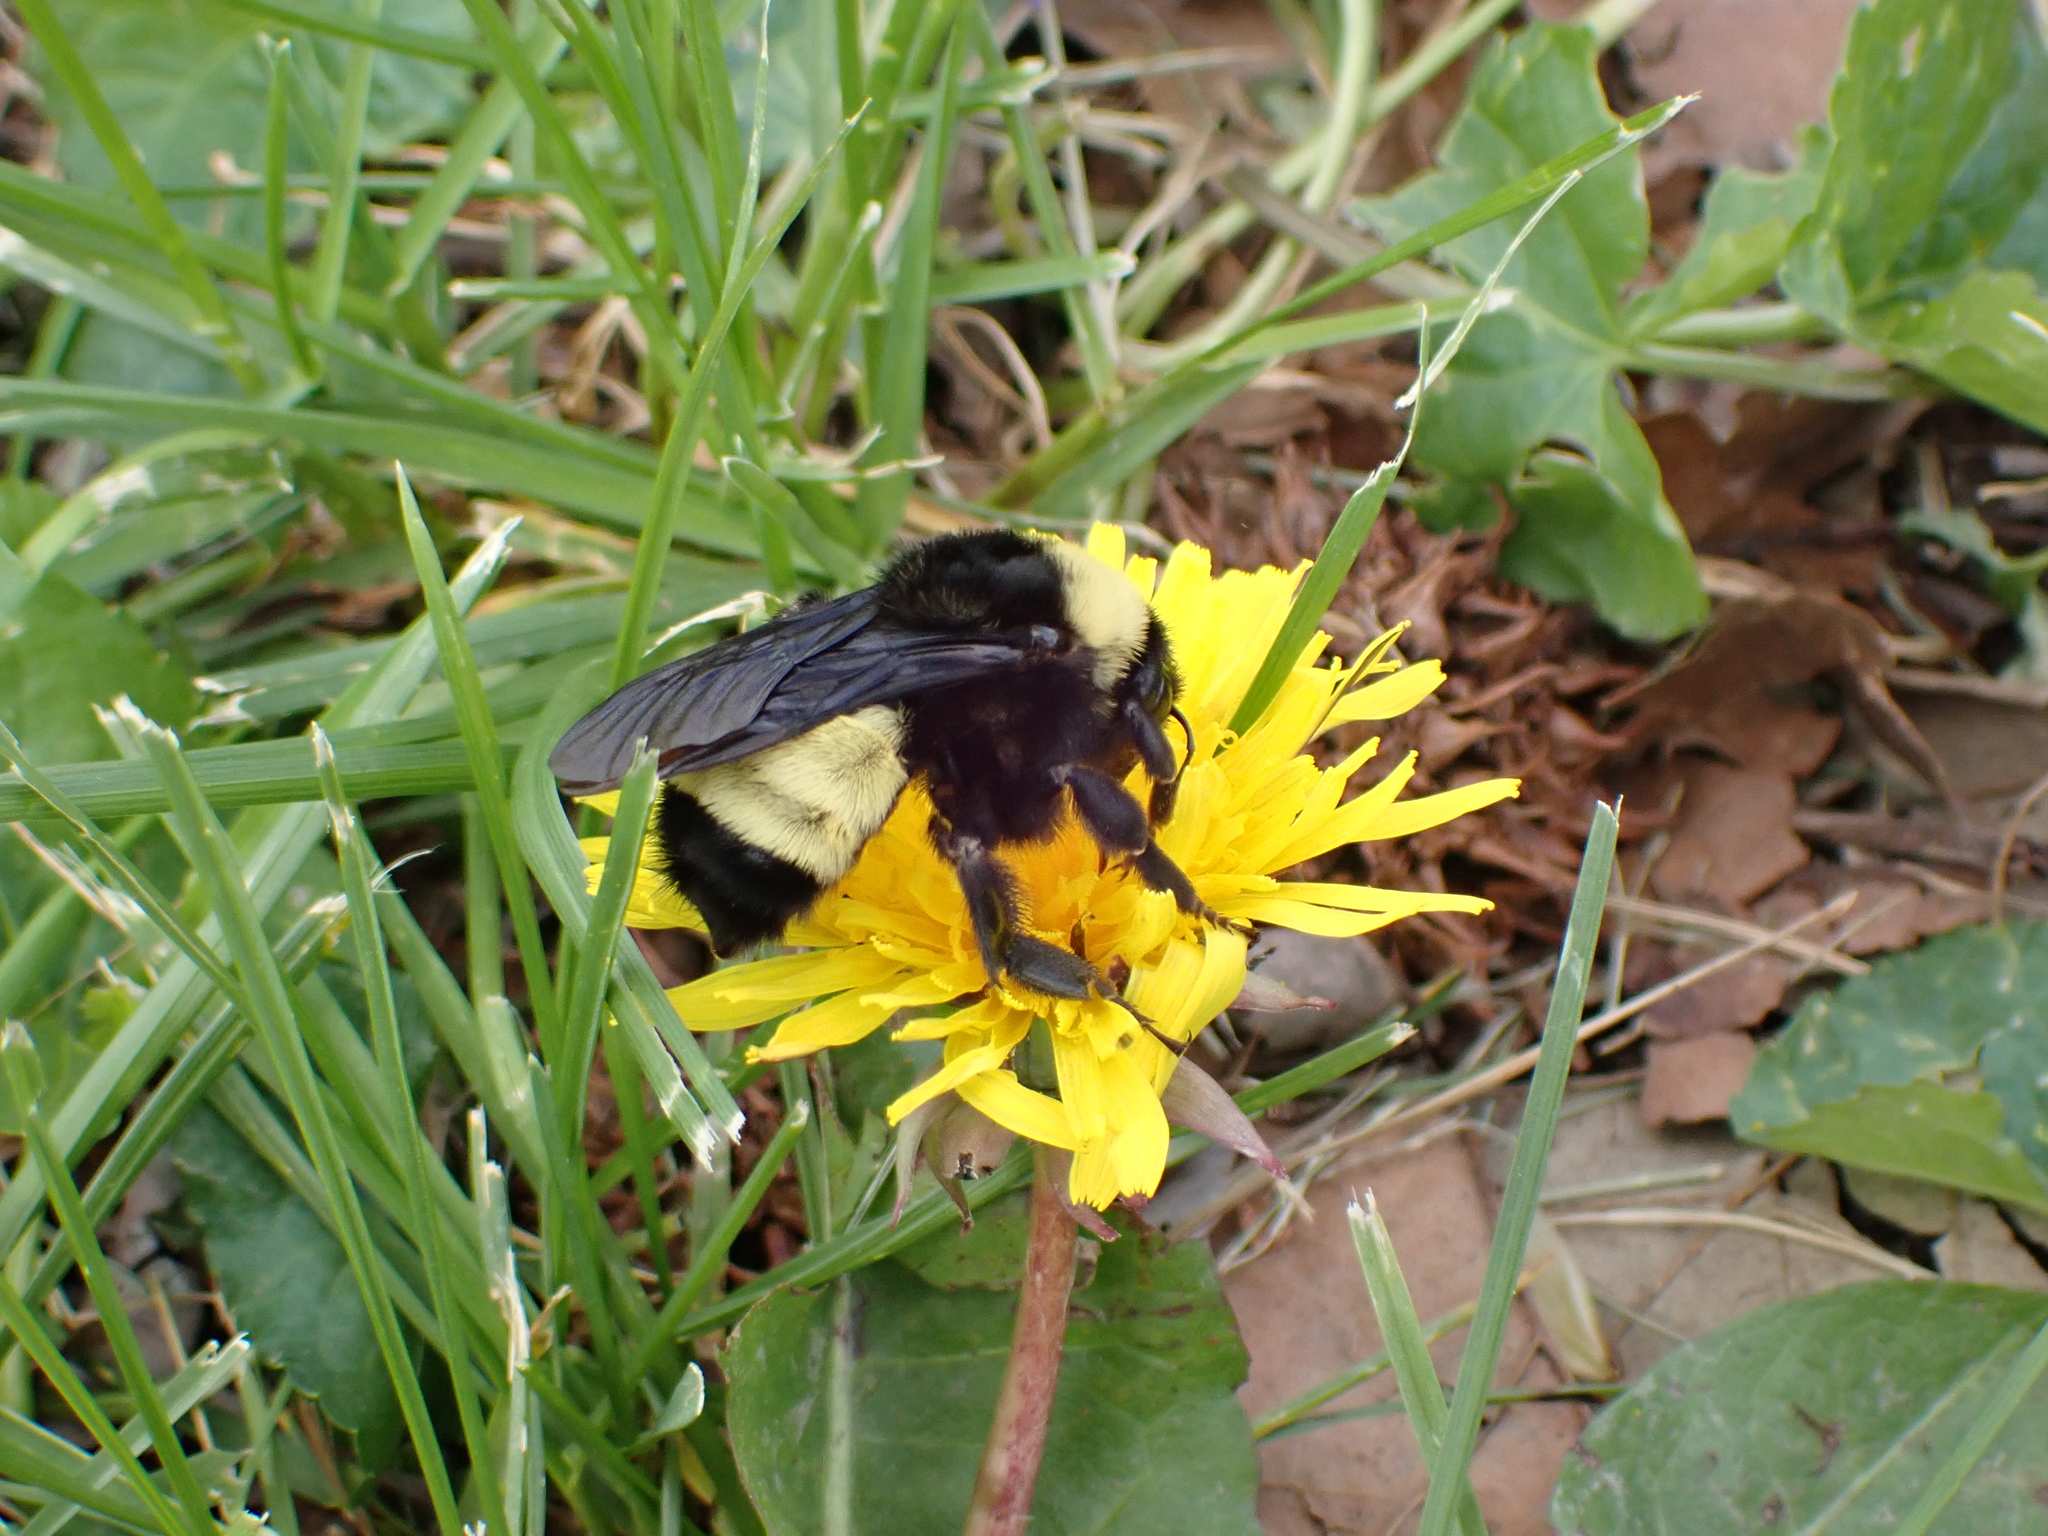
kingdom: Animalia
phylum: Arthropoda
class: Insecta
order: Hymenoptera
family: Apidae
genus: Bombus
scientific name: Bombus pensylvanicus
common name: Bumble bee
